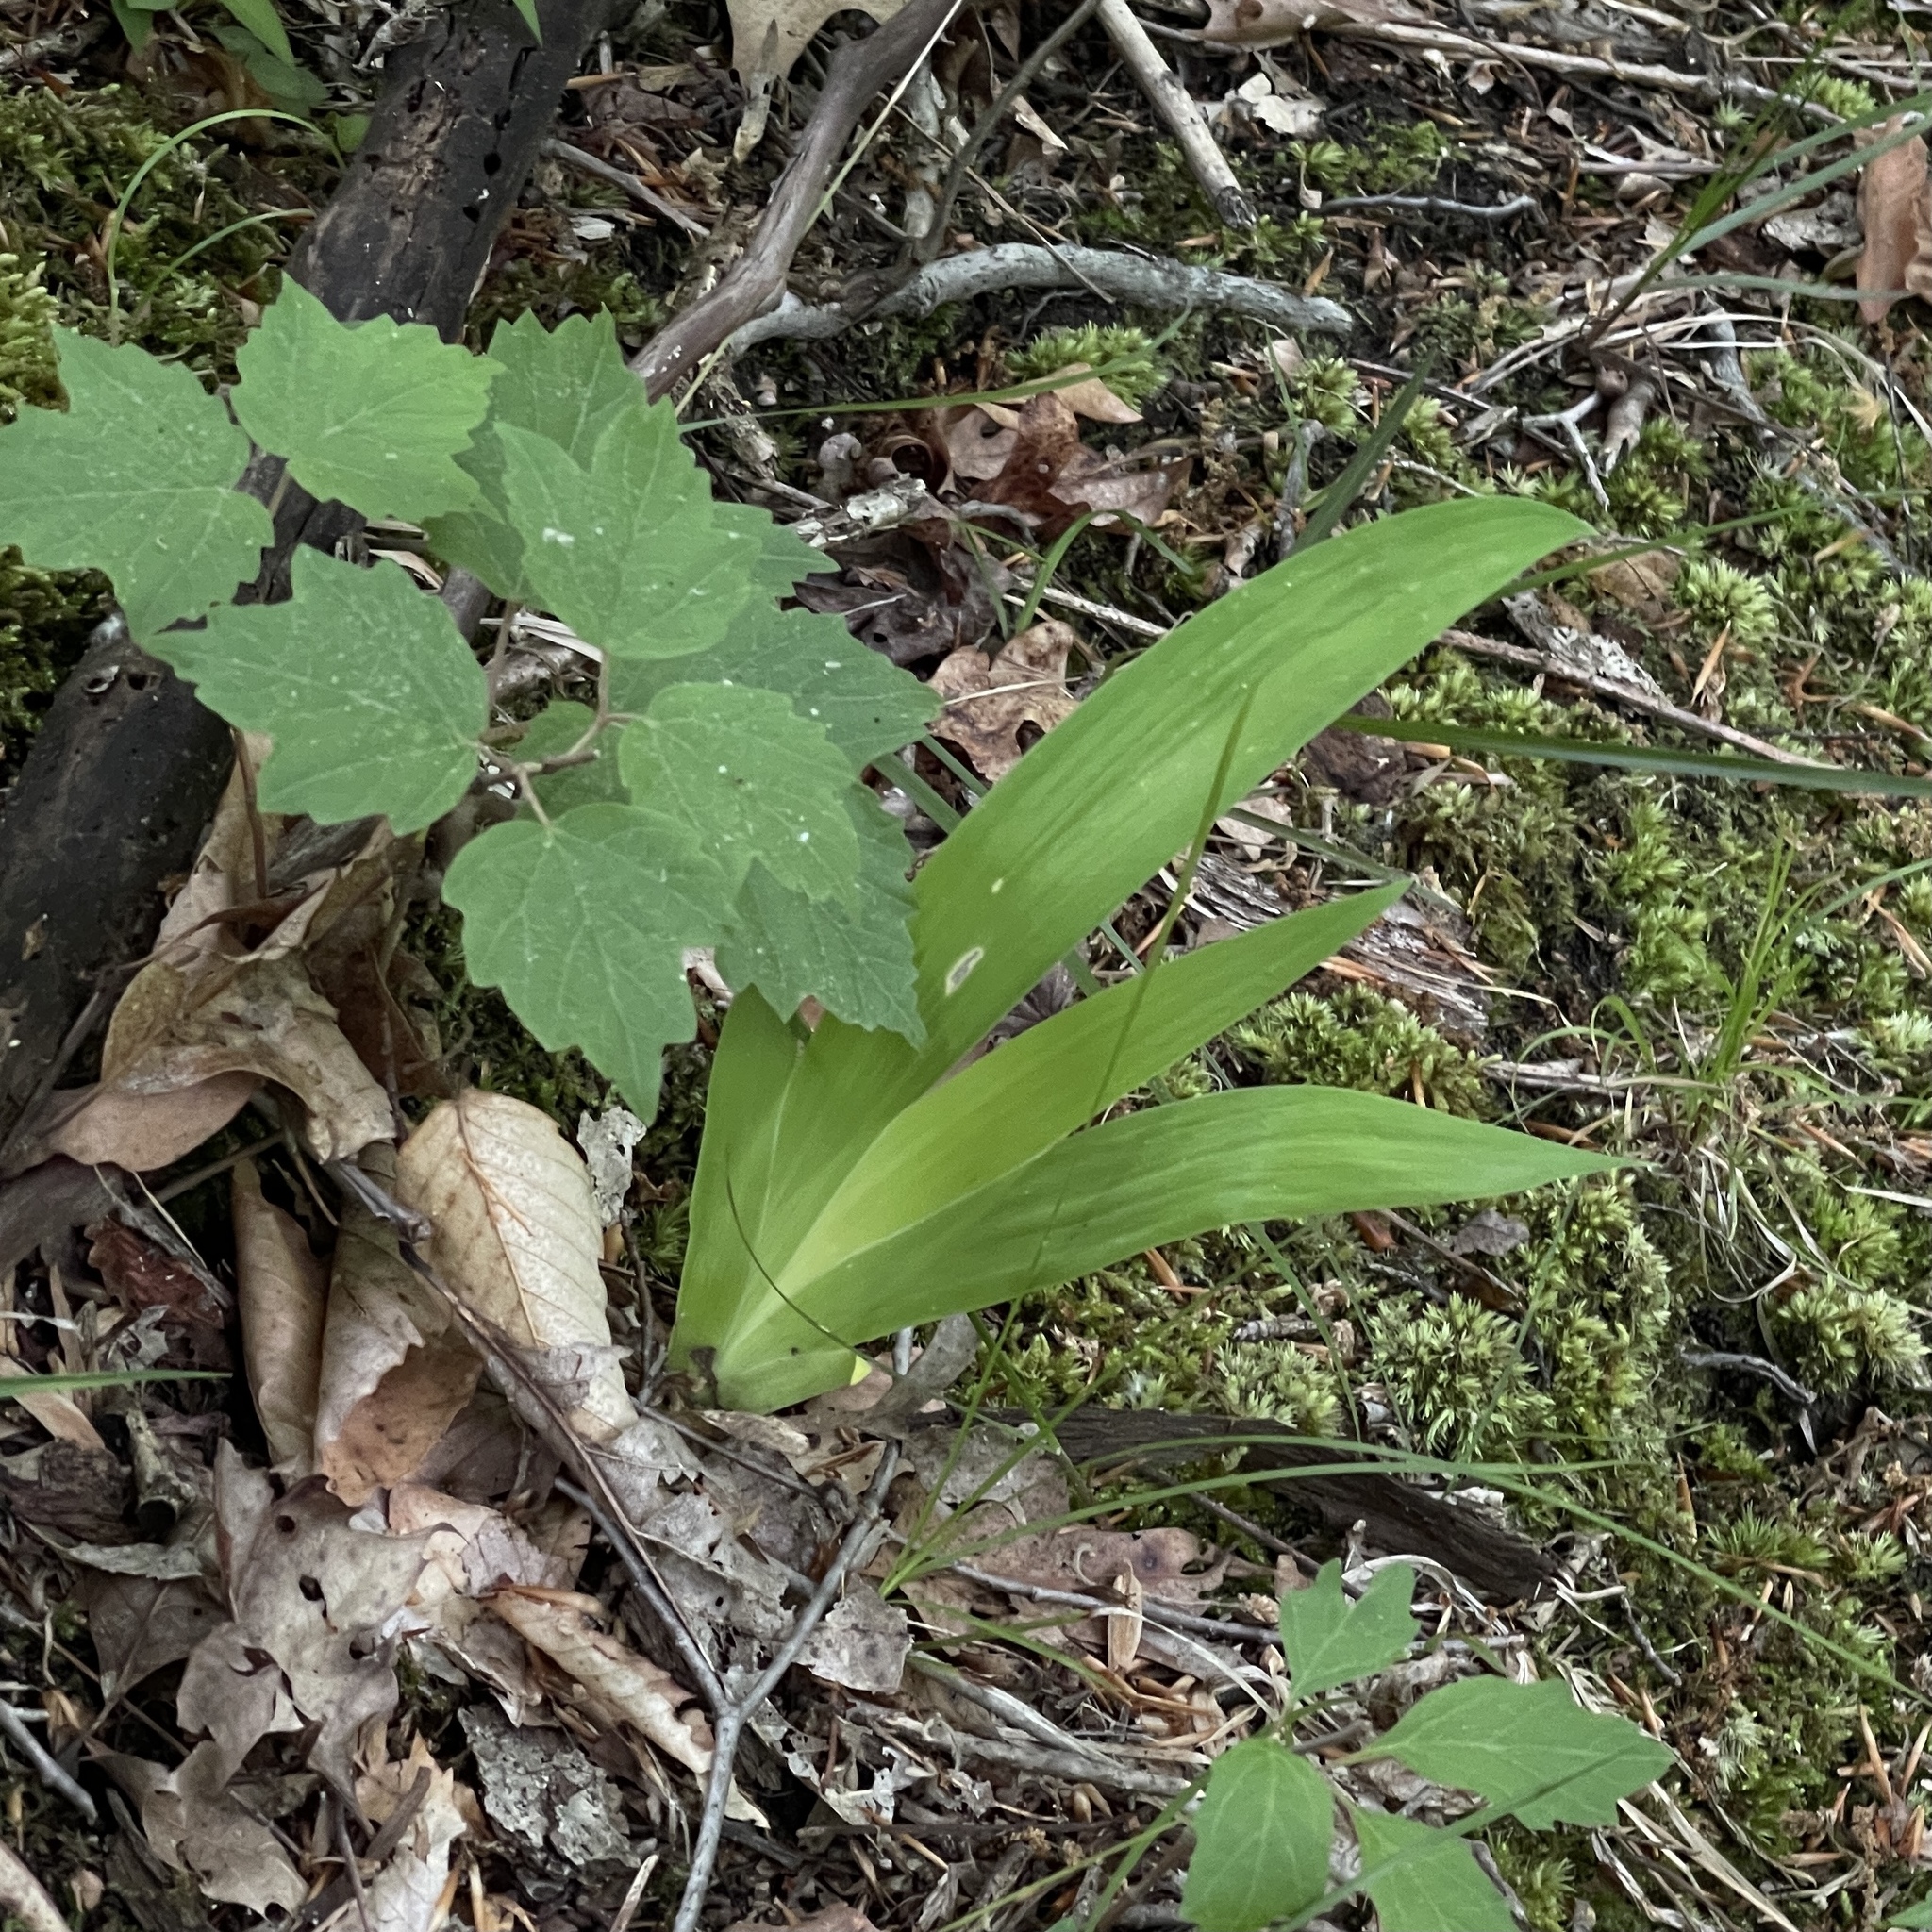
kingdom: Plantae
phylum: Tracheophyta
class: Liliopsida
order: Asparagales
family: Iridaceae
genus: Iris
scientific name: Iris cristata
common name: Crested iris
